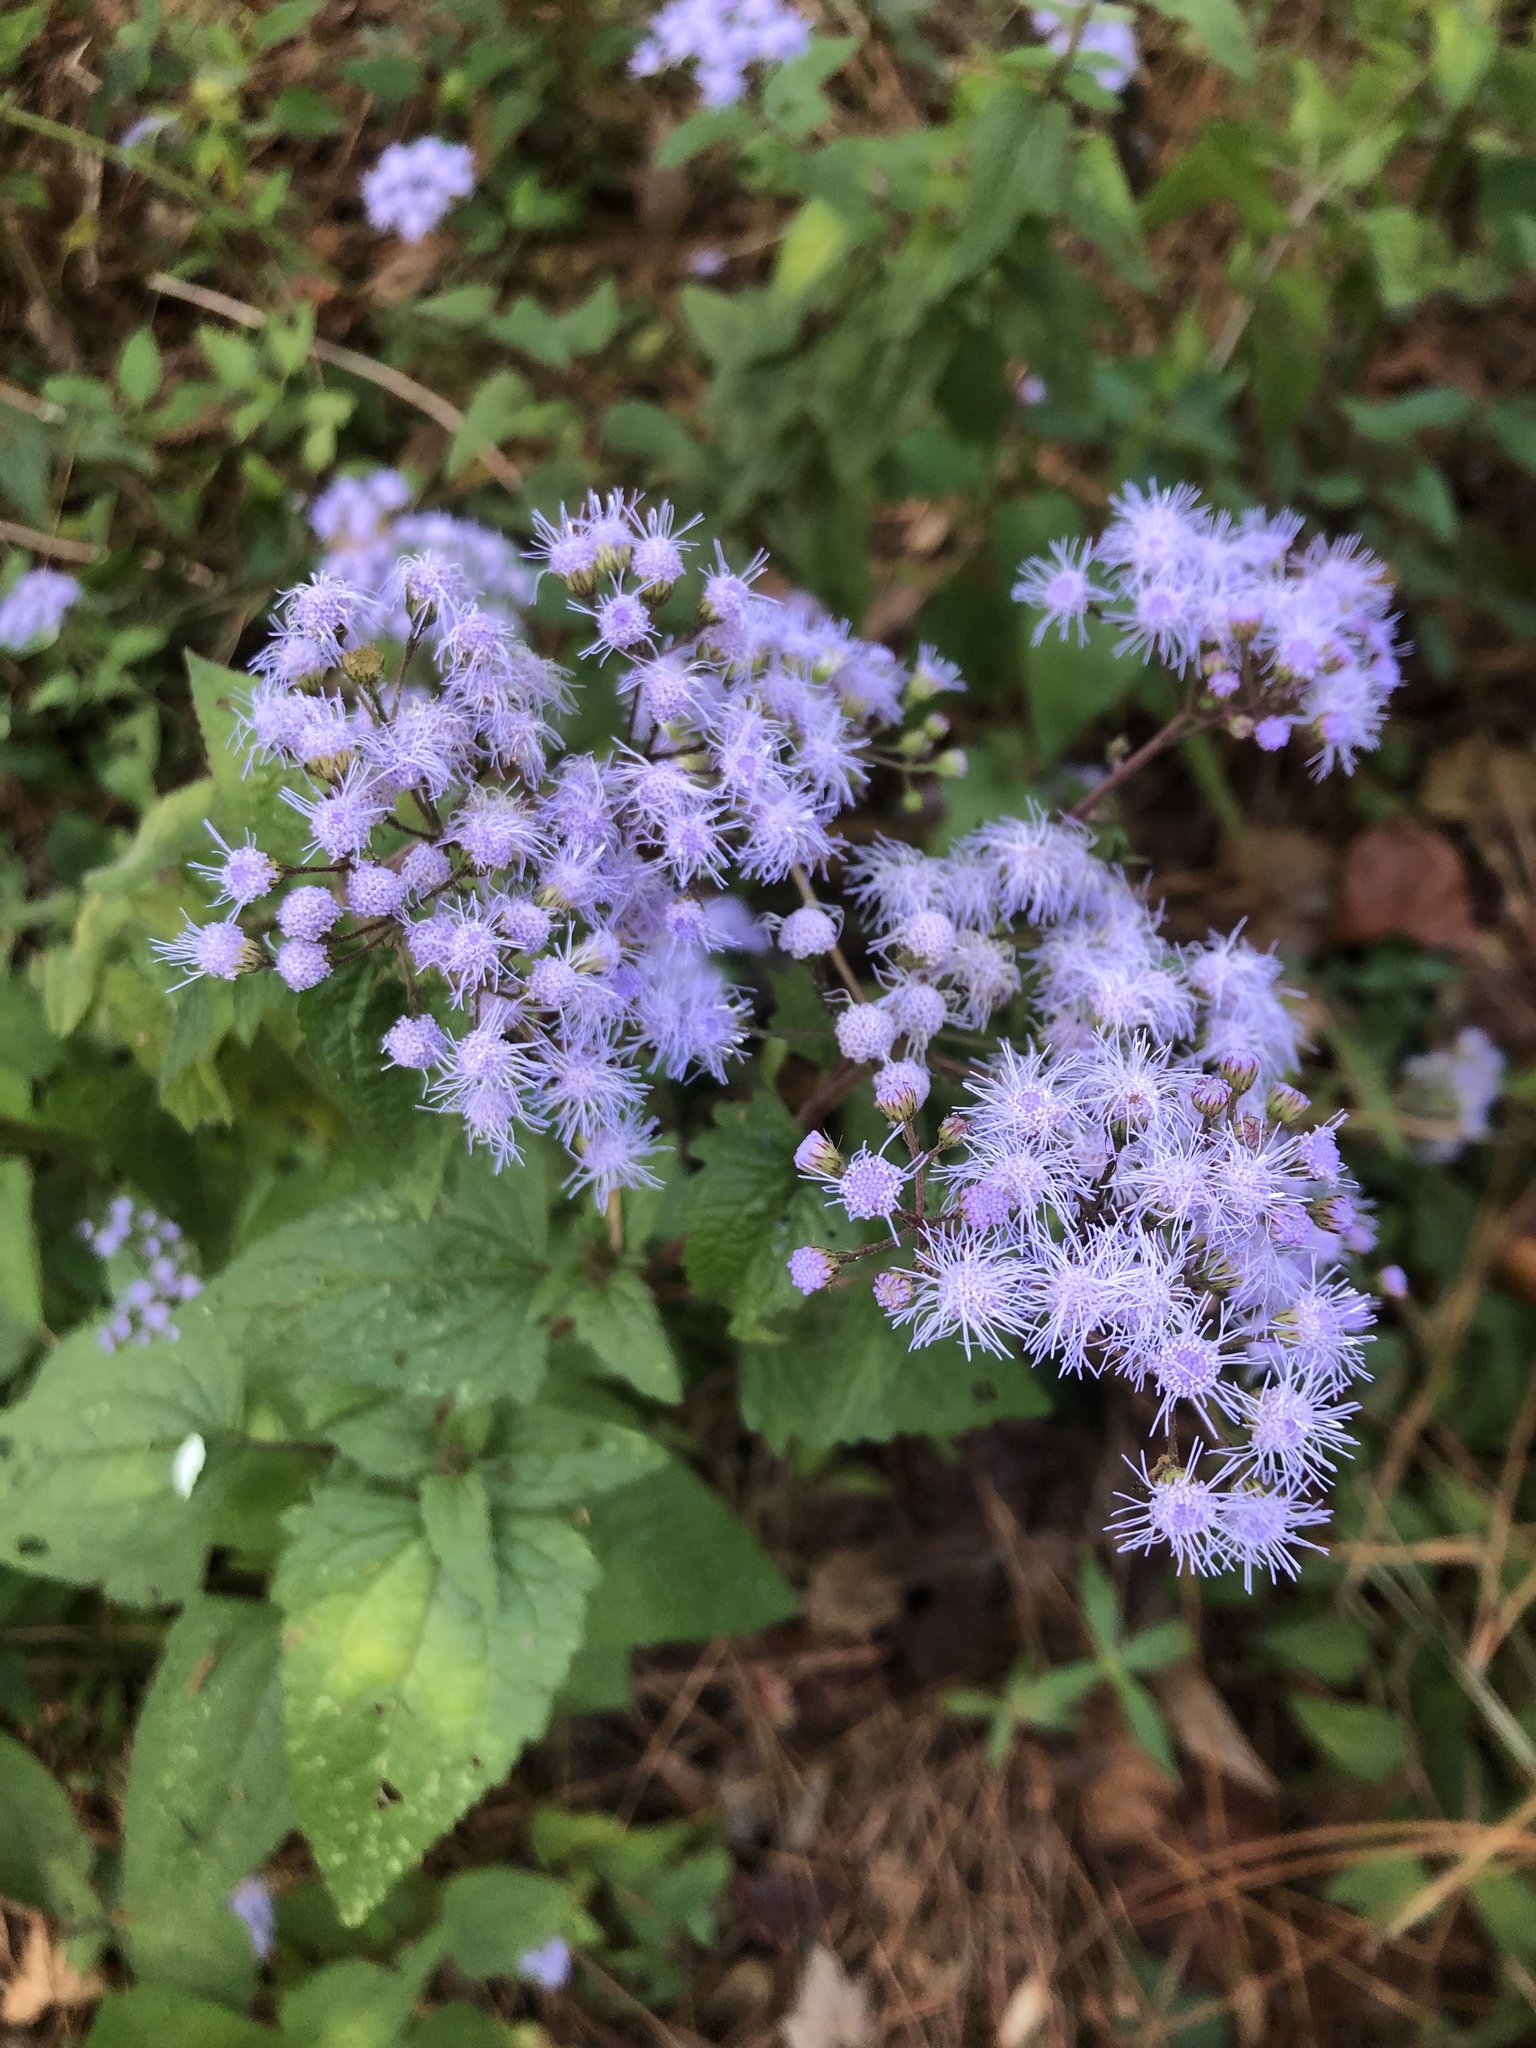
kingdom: Plantae
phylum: Tracheophyta
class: Magnoliopsida
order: Asterales
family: Asteraceae
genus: Conoclinium
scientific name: Conoclinium coelestinum
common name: Blue mistflower
